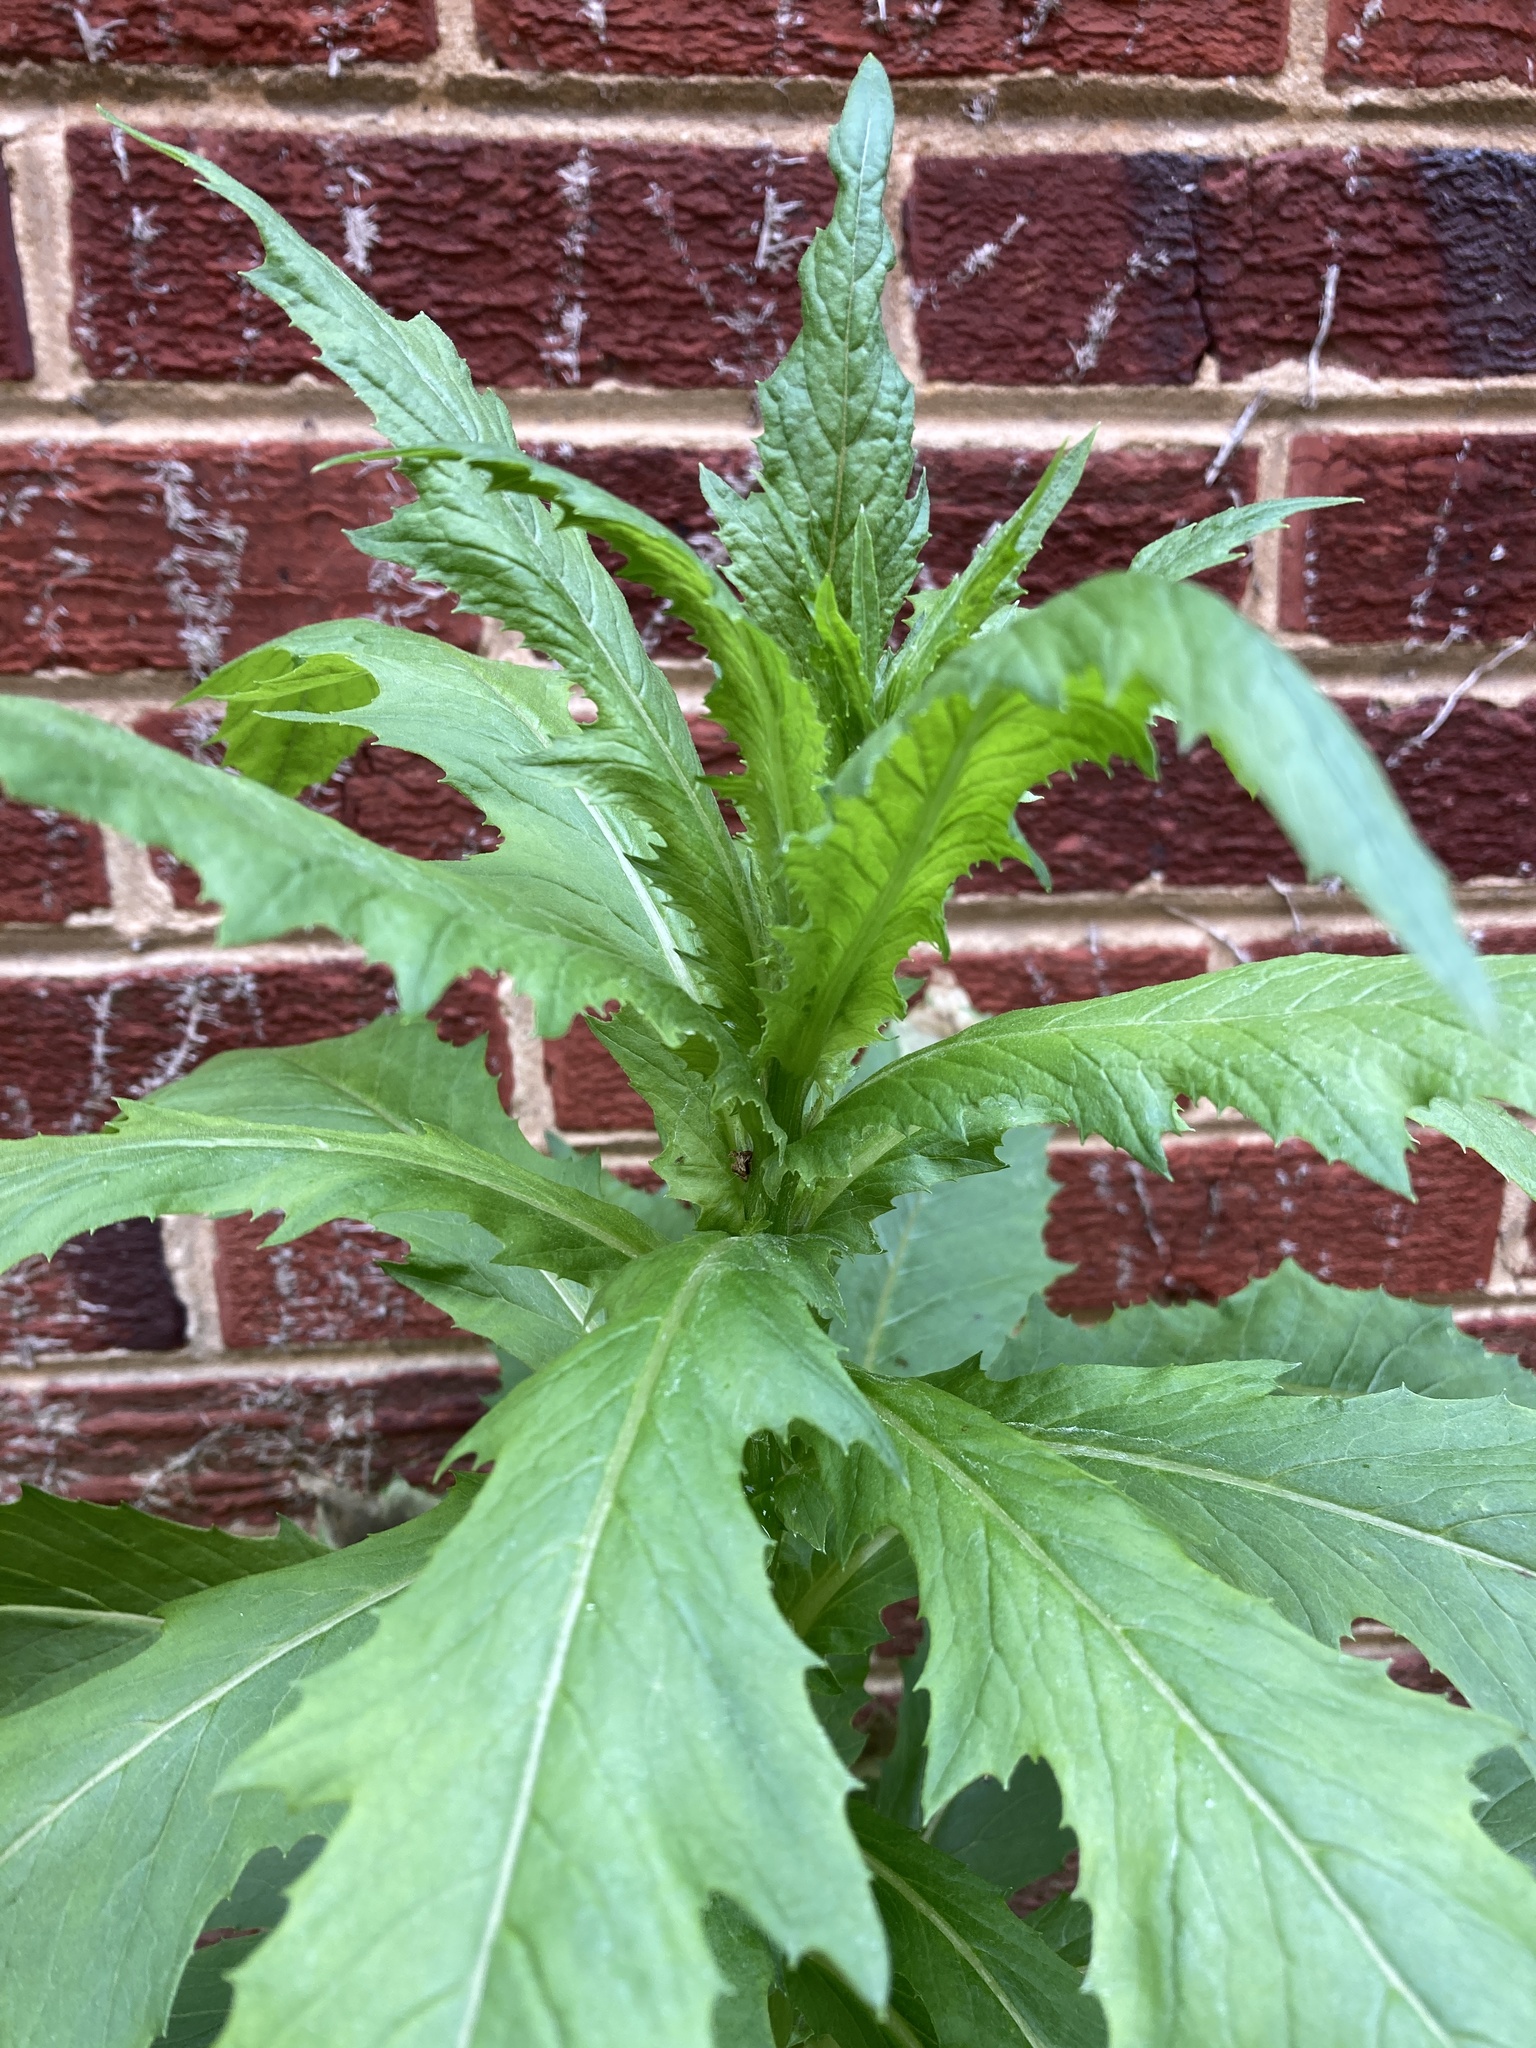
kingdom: Plantae
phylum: Tracheophyta
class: Magnoliopsida
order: Asterales
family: Asteraceae
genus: Erechtites
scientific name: Erechtites hieraciifolius
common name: American burnweed
